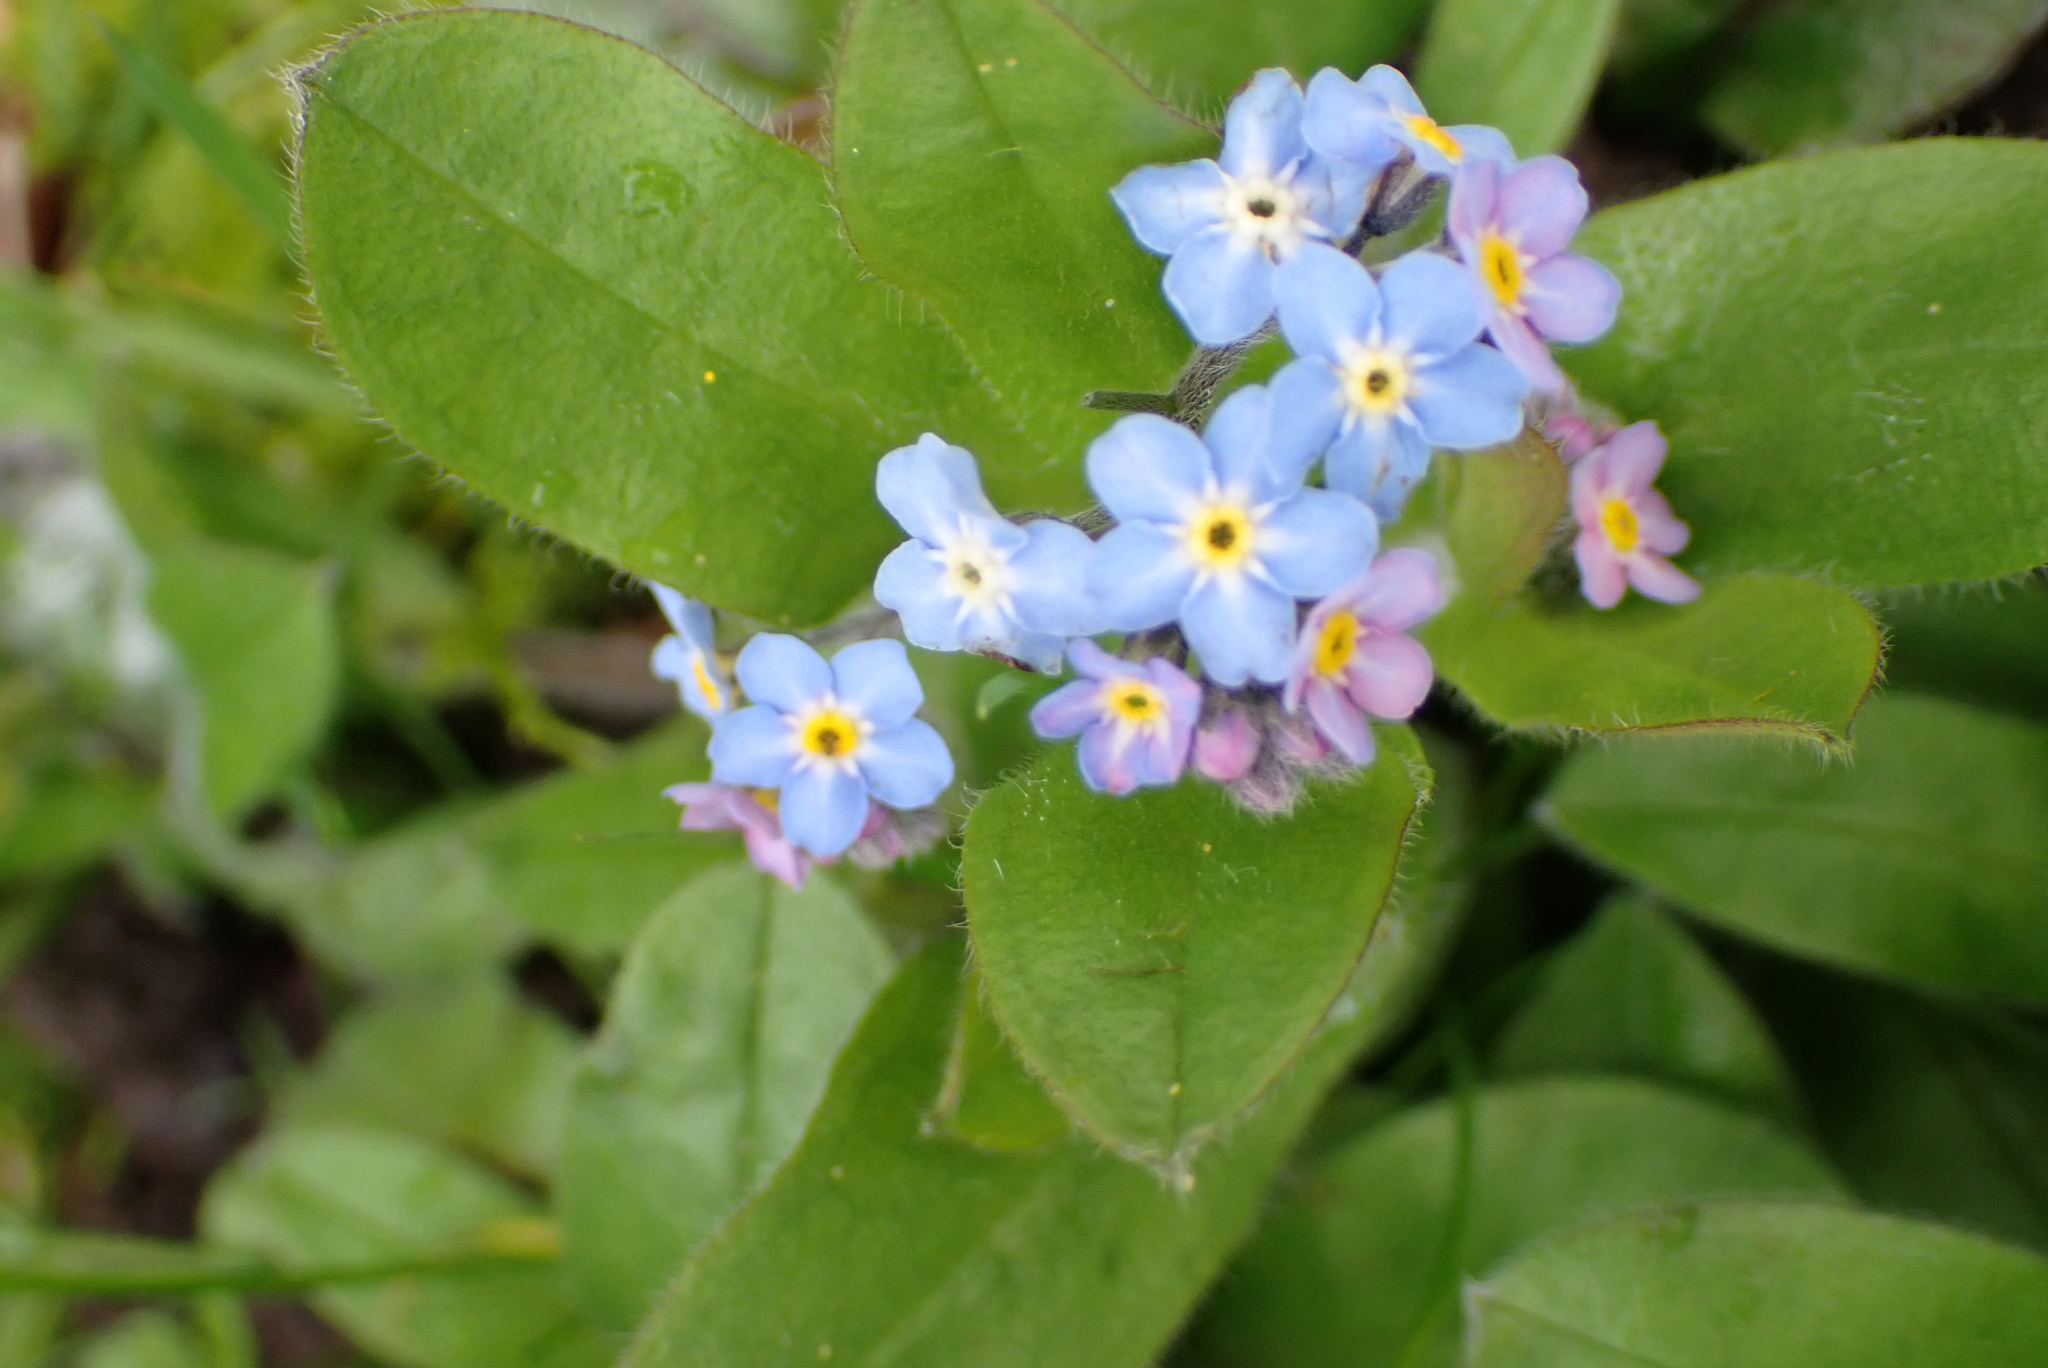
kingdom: Plantae
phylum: Tracheophyta
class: Magnoliopsida
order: Boraginales
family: Boraginaceae
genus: Myosotis
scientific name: Myosotis sylvatica
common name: Wood forget-me-not
